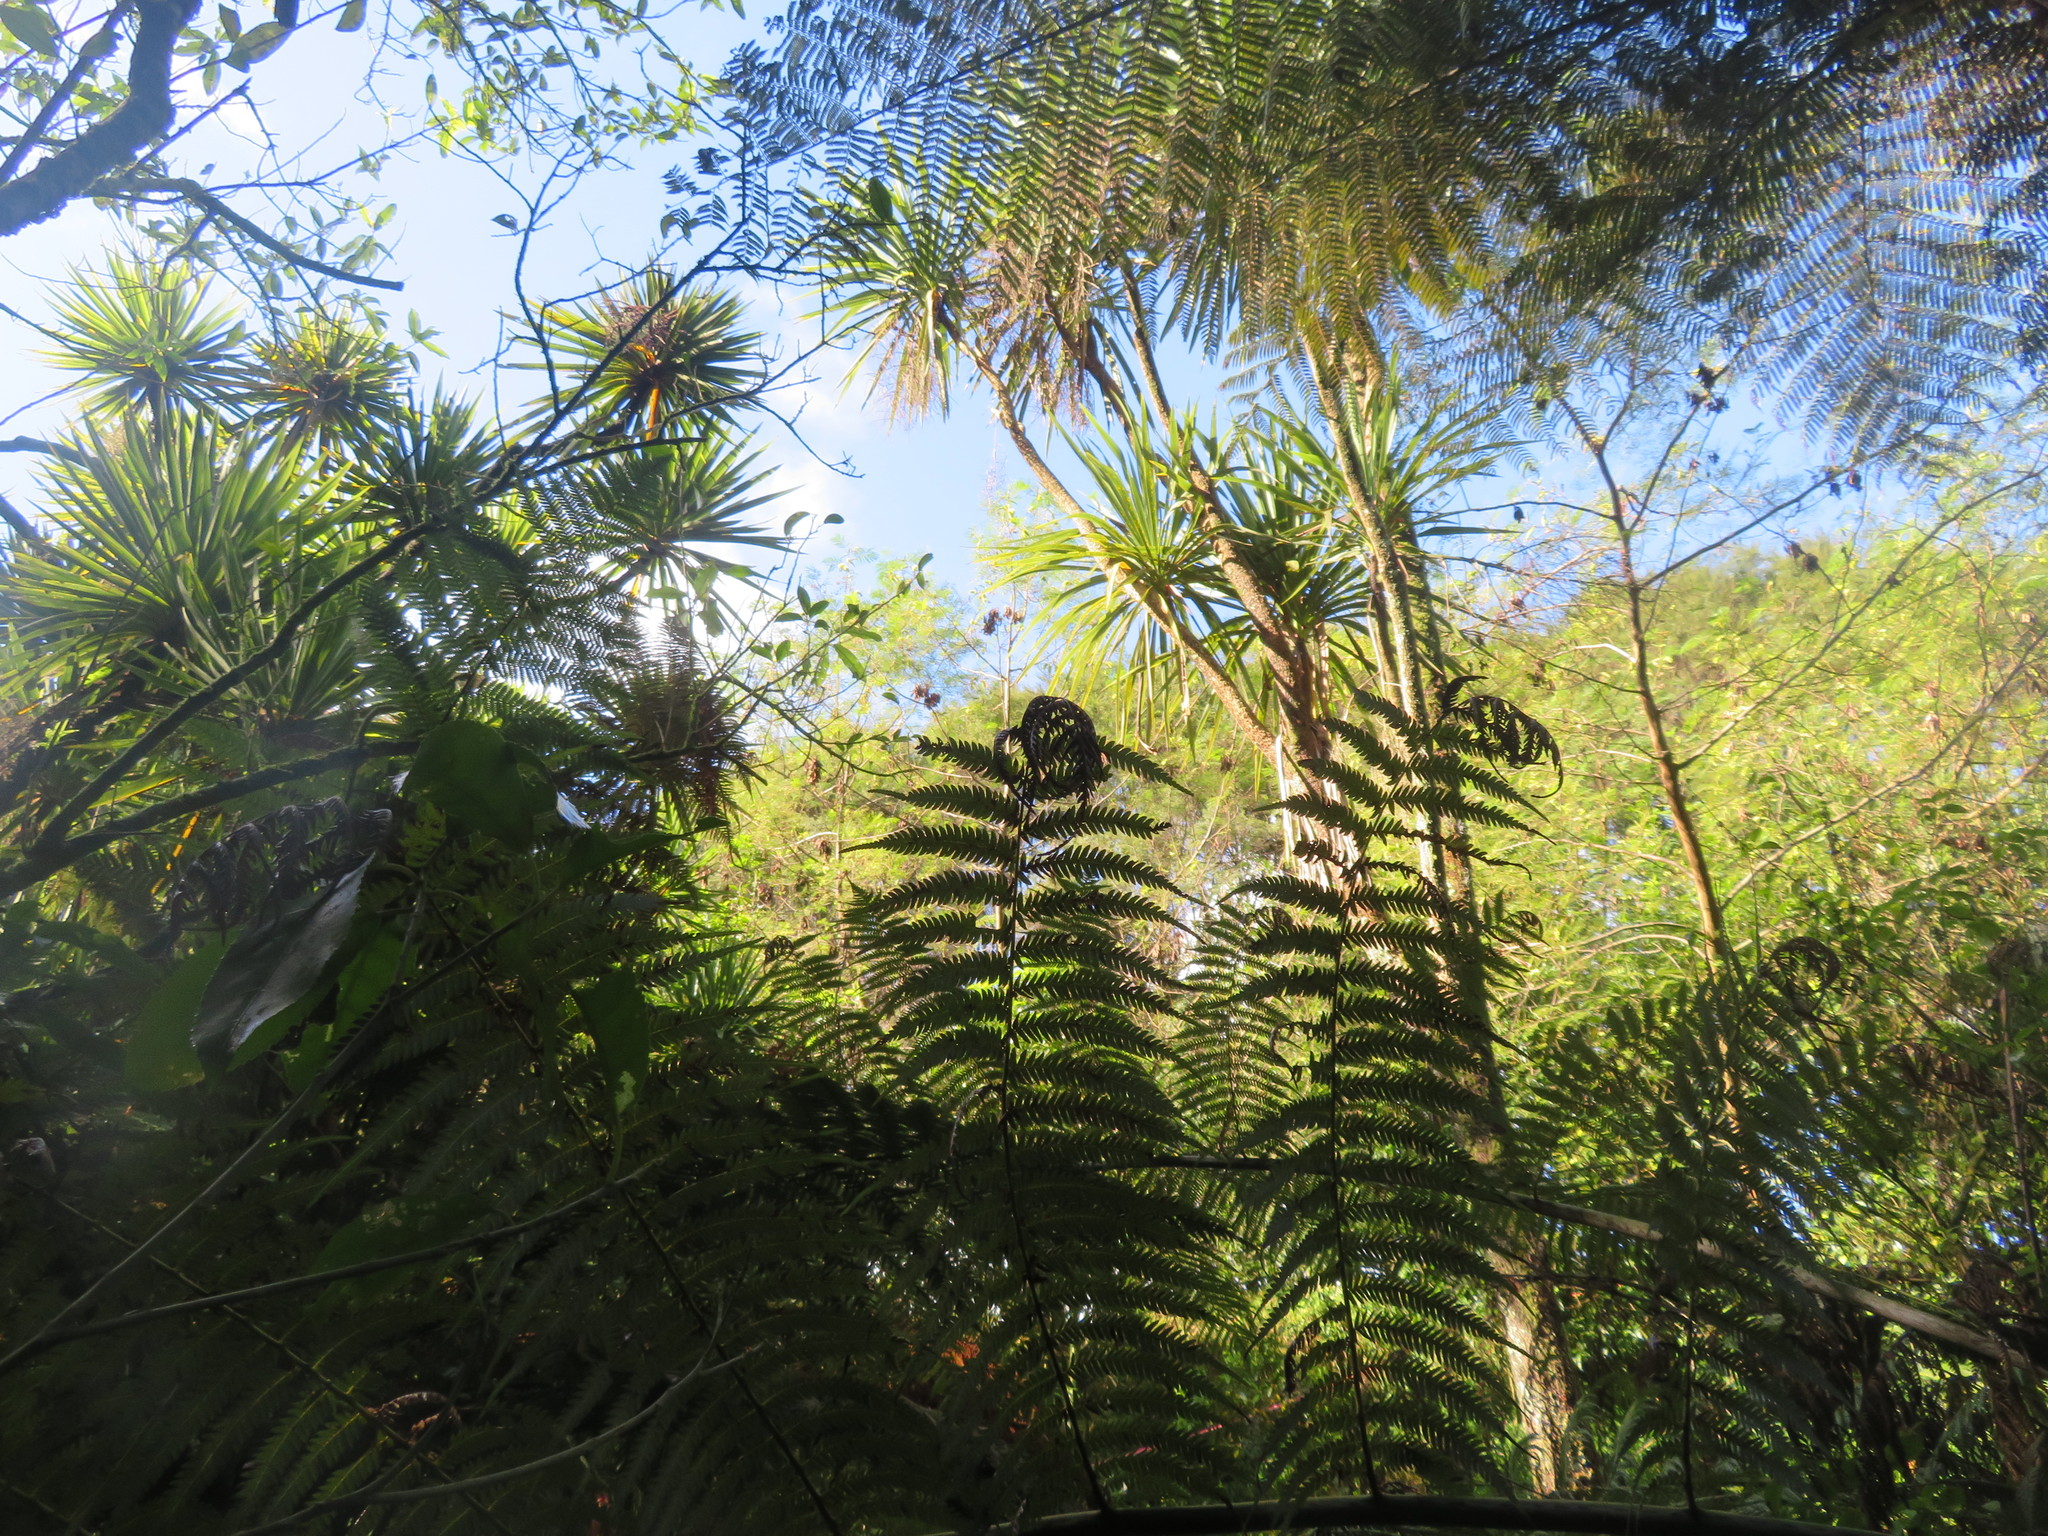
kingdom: Plantae
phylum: Tracheophyta
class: Liliopsida
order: Asparagales
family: Asparagaceae
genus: Cordyline
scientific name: Cordyline australis
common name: Cabbage-palm
